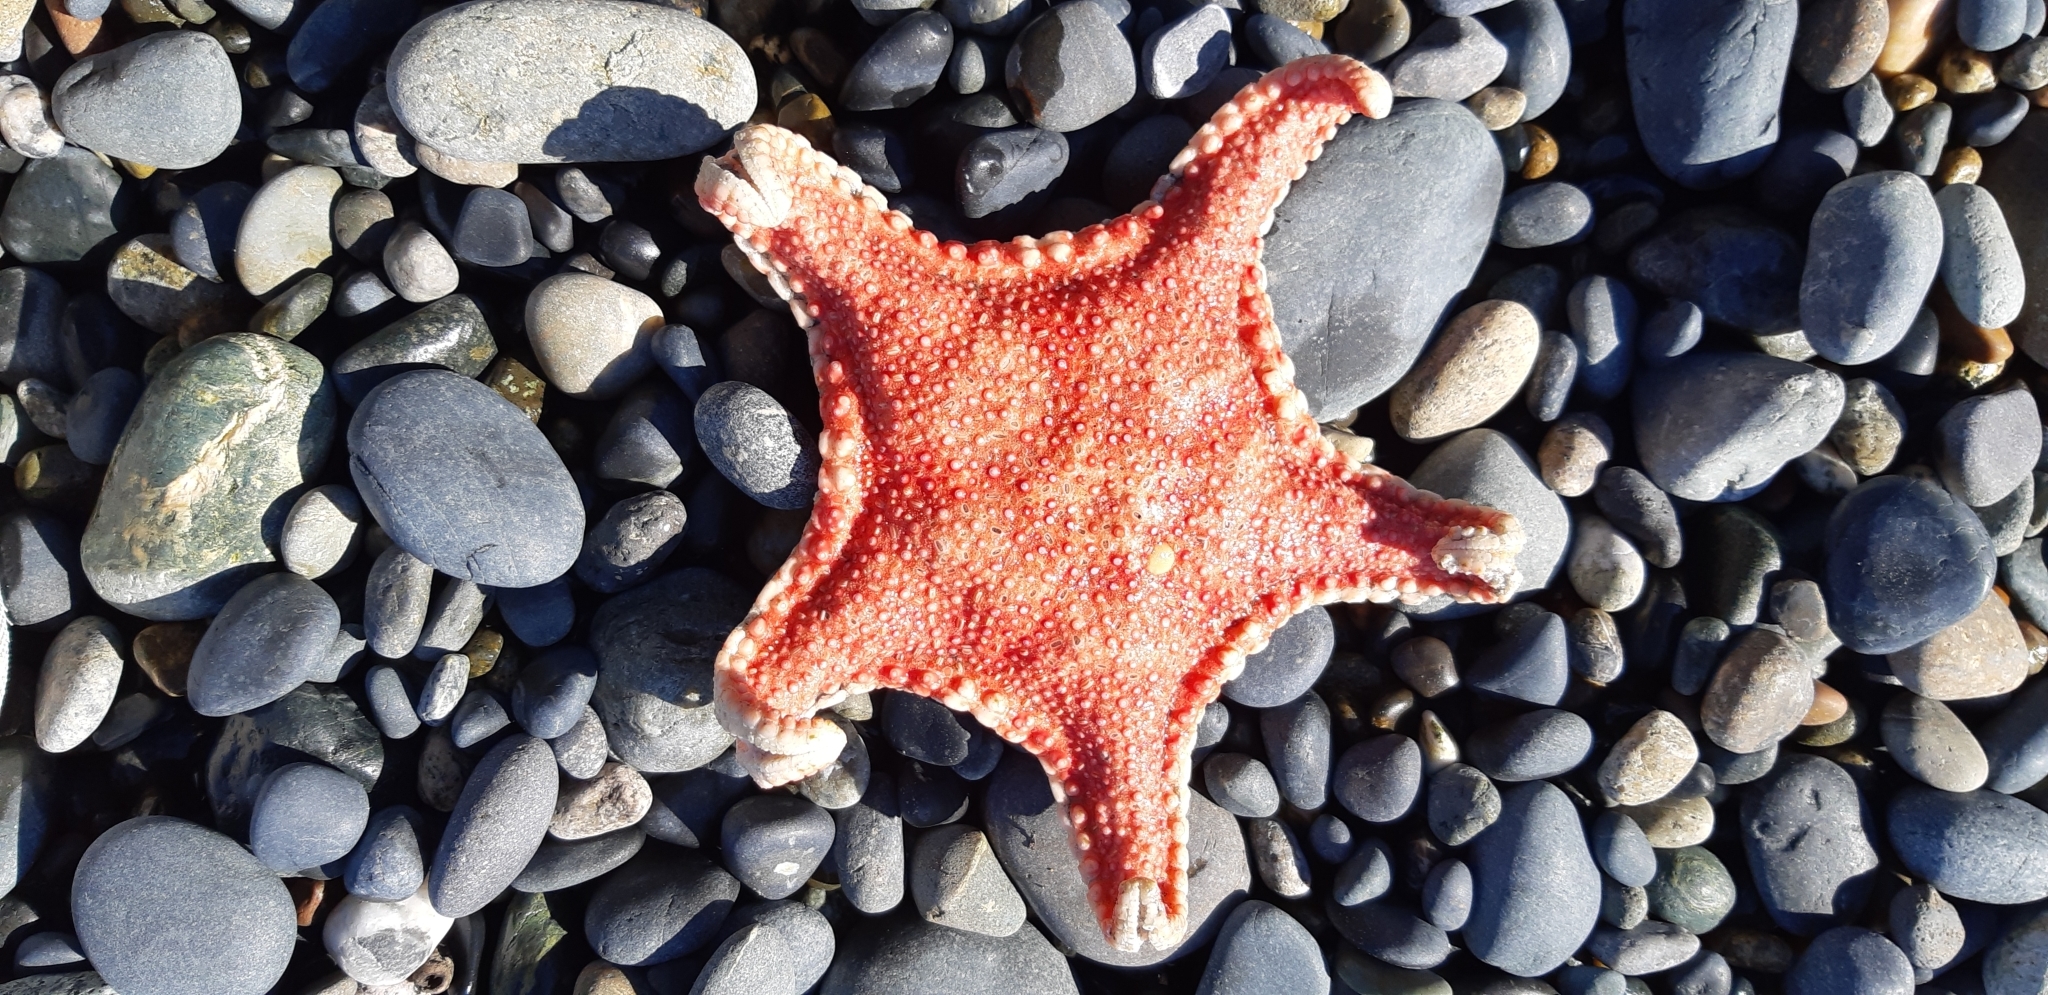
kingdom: Animalia
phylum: Echinodermata
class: Asteroidea
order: Valvatida
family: Goniasteridae
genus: Hippasteria
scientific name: Hippasteria phrygiana
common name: Arctic cushion star
